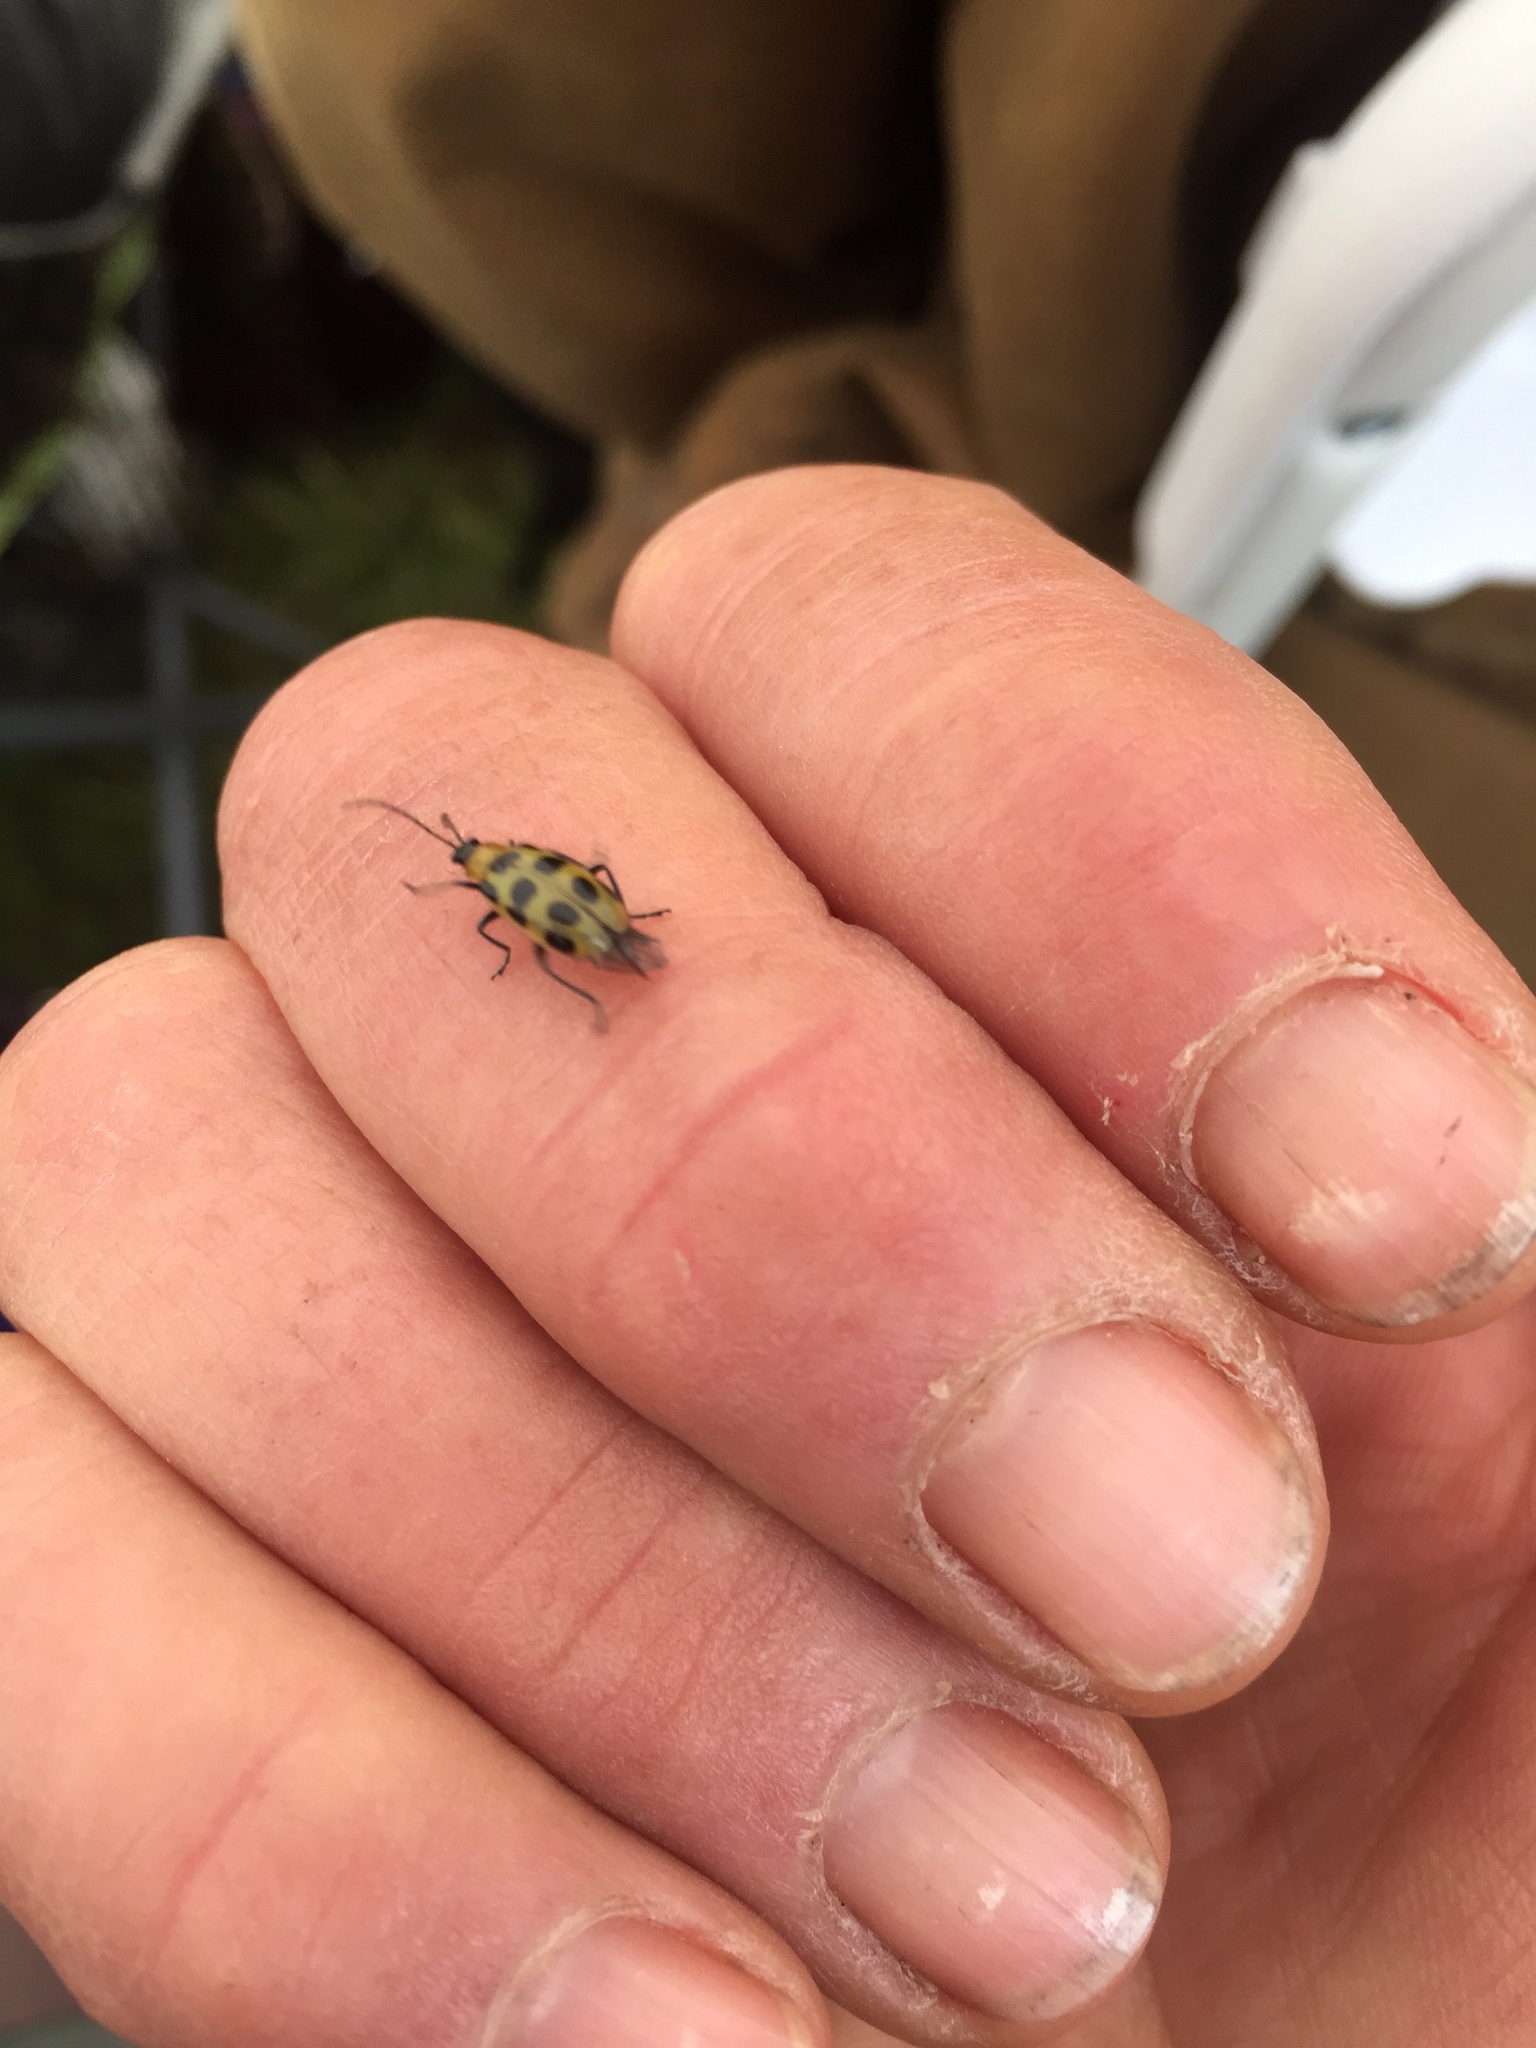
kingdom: Animalia
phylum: Arthropoda
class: Insecta
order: Coleoptera
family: Chrysomelidae
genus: Diabrotica
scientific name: Diabrotica undecimpunctata
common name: Spotted cucumber beetle
